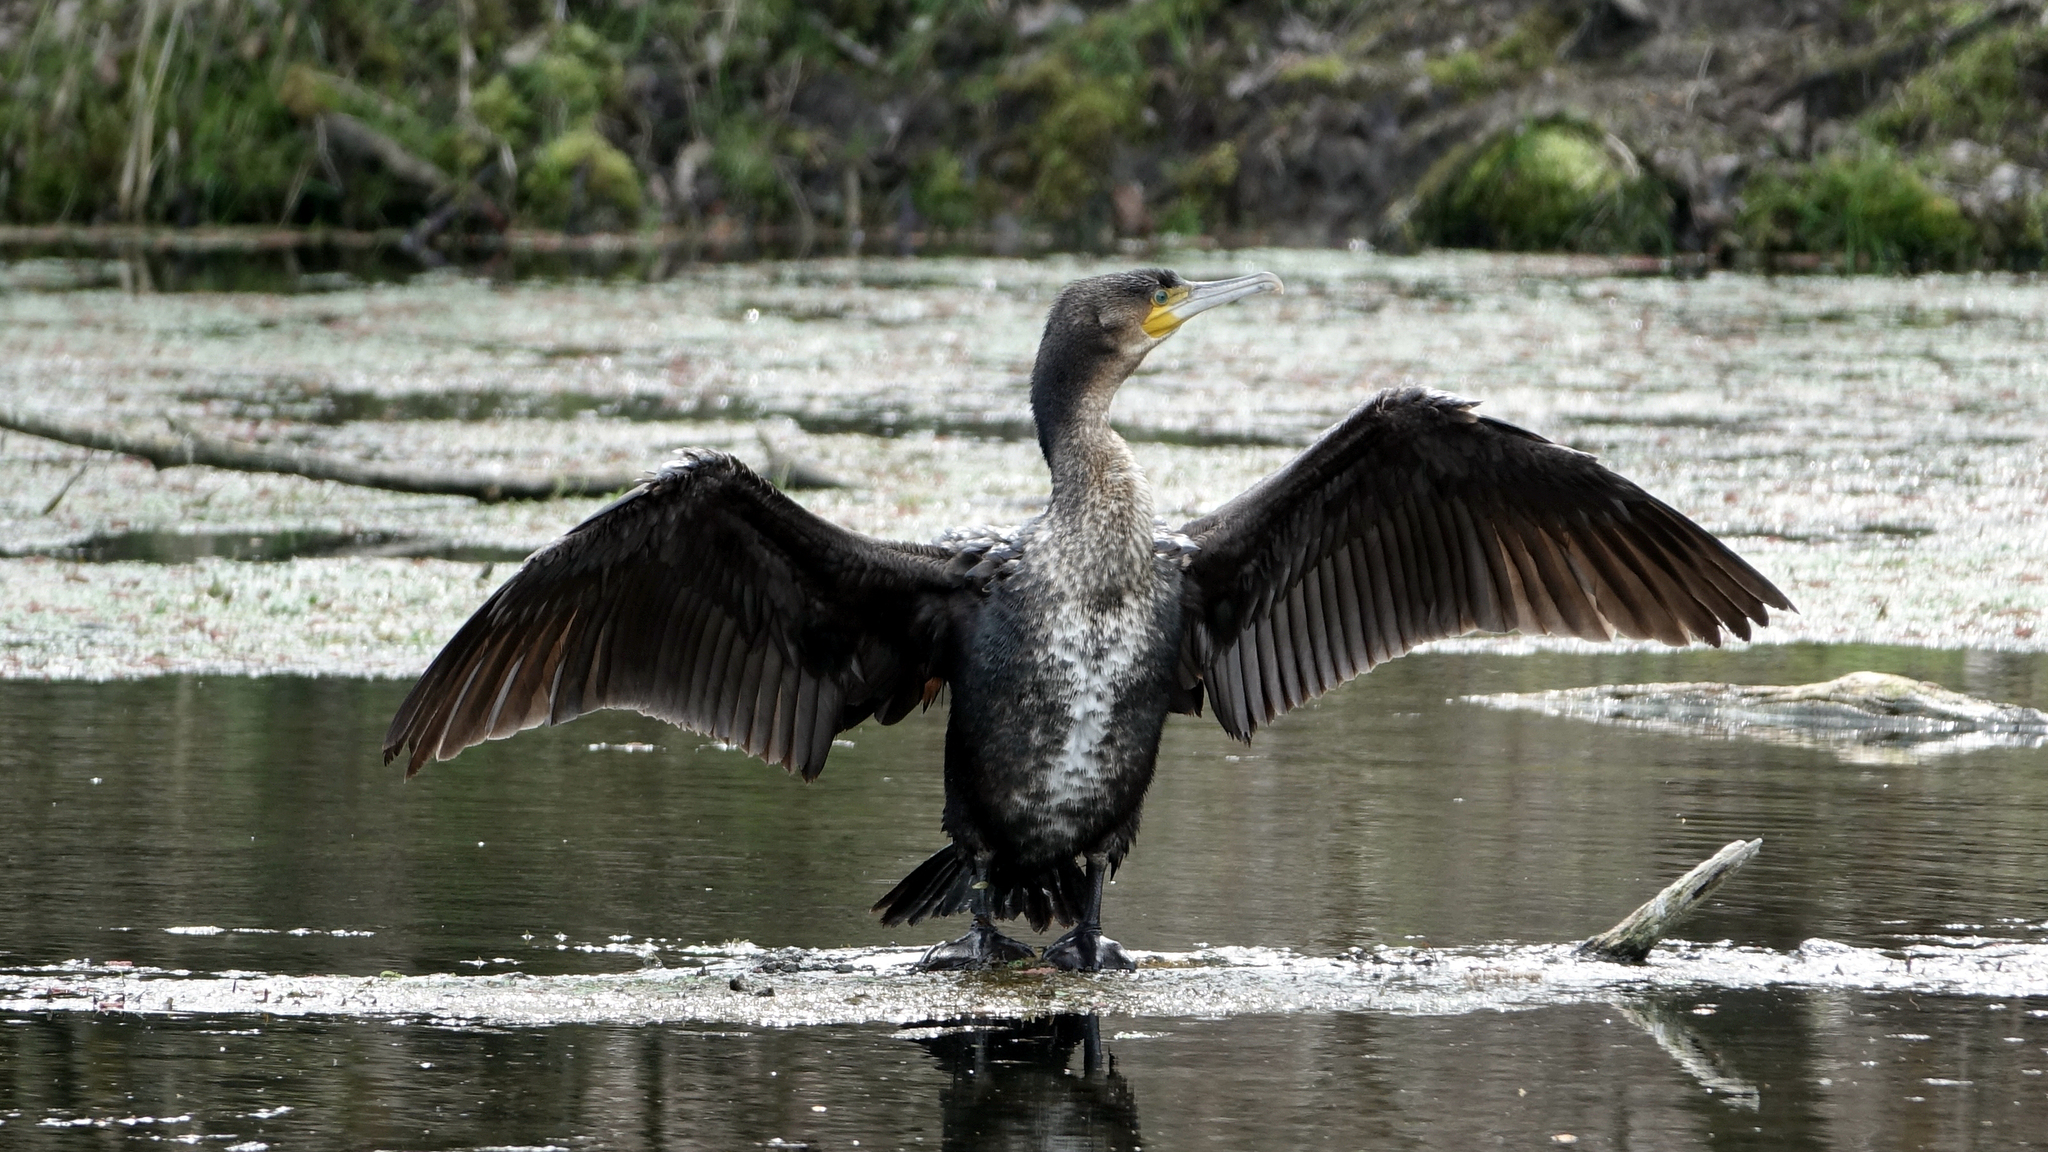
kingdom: Animalia
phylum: Chordata
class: Aves
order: Suliformes
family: Phalacrocoracidae
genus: Phalacrocorax
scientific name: Phalacrocorax carbo
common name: Great cormorant
